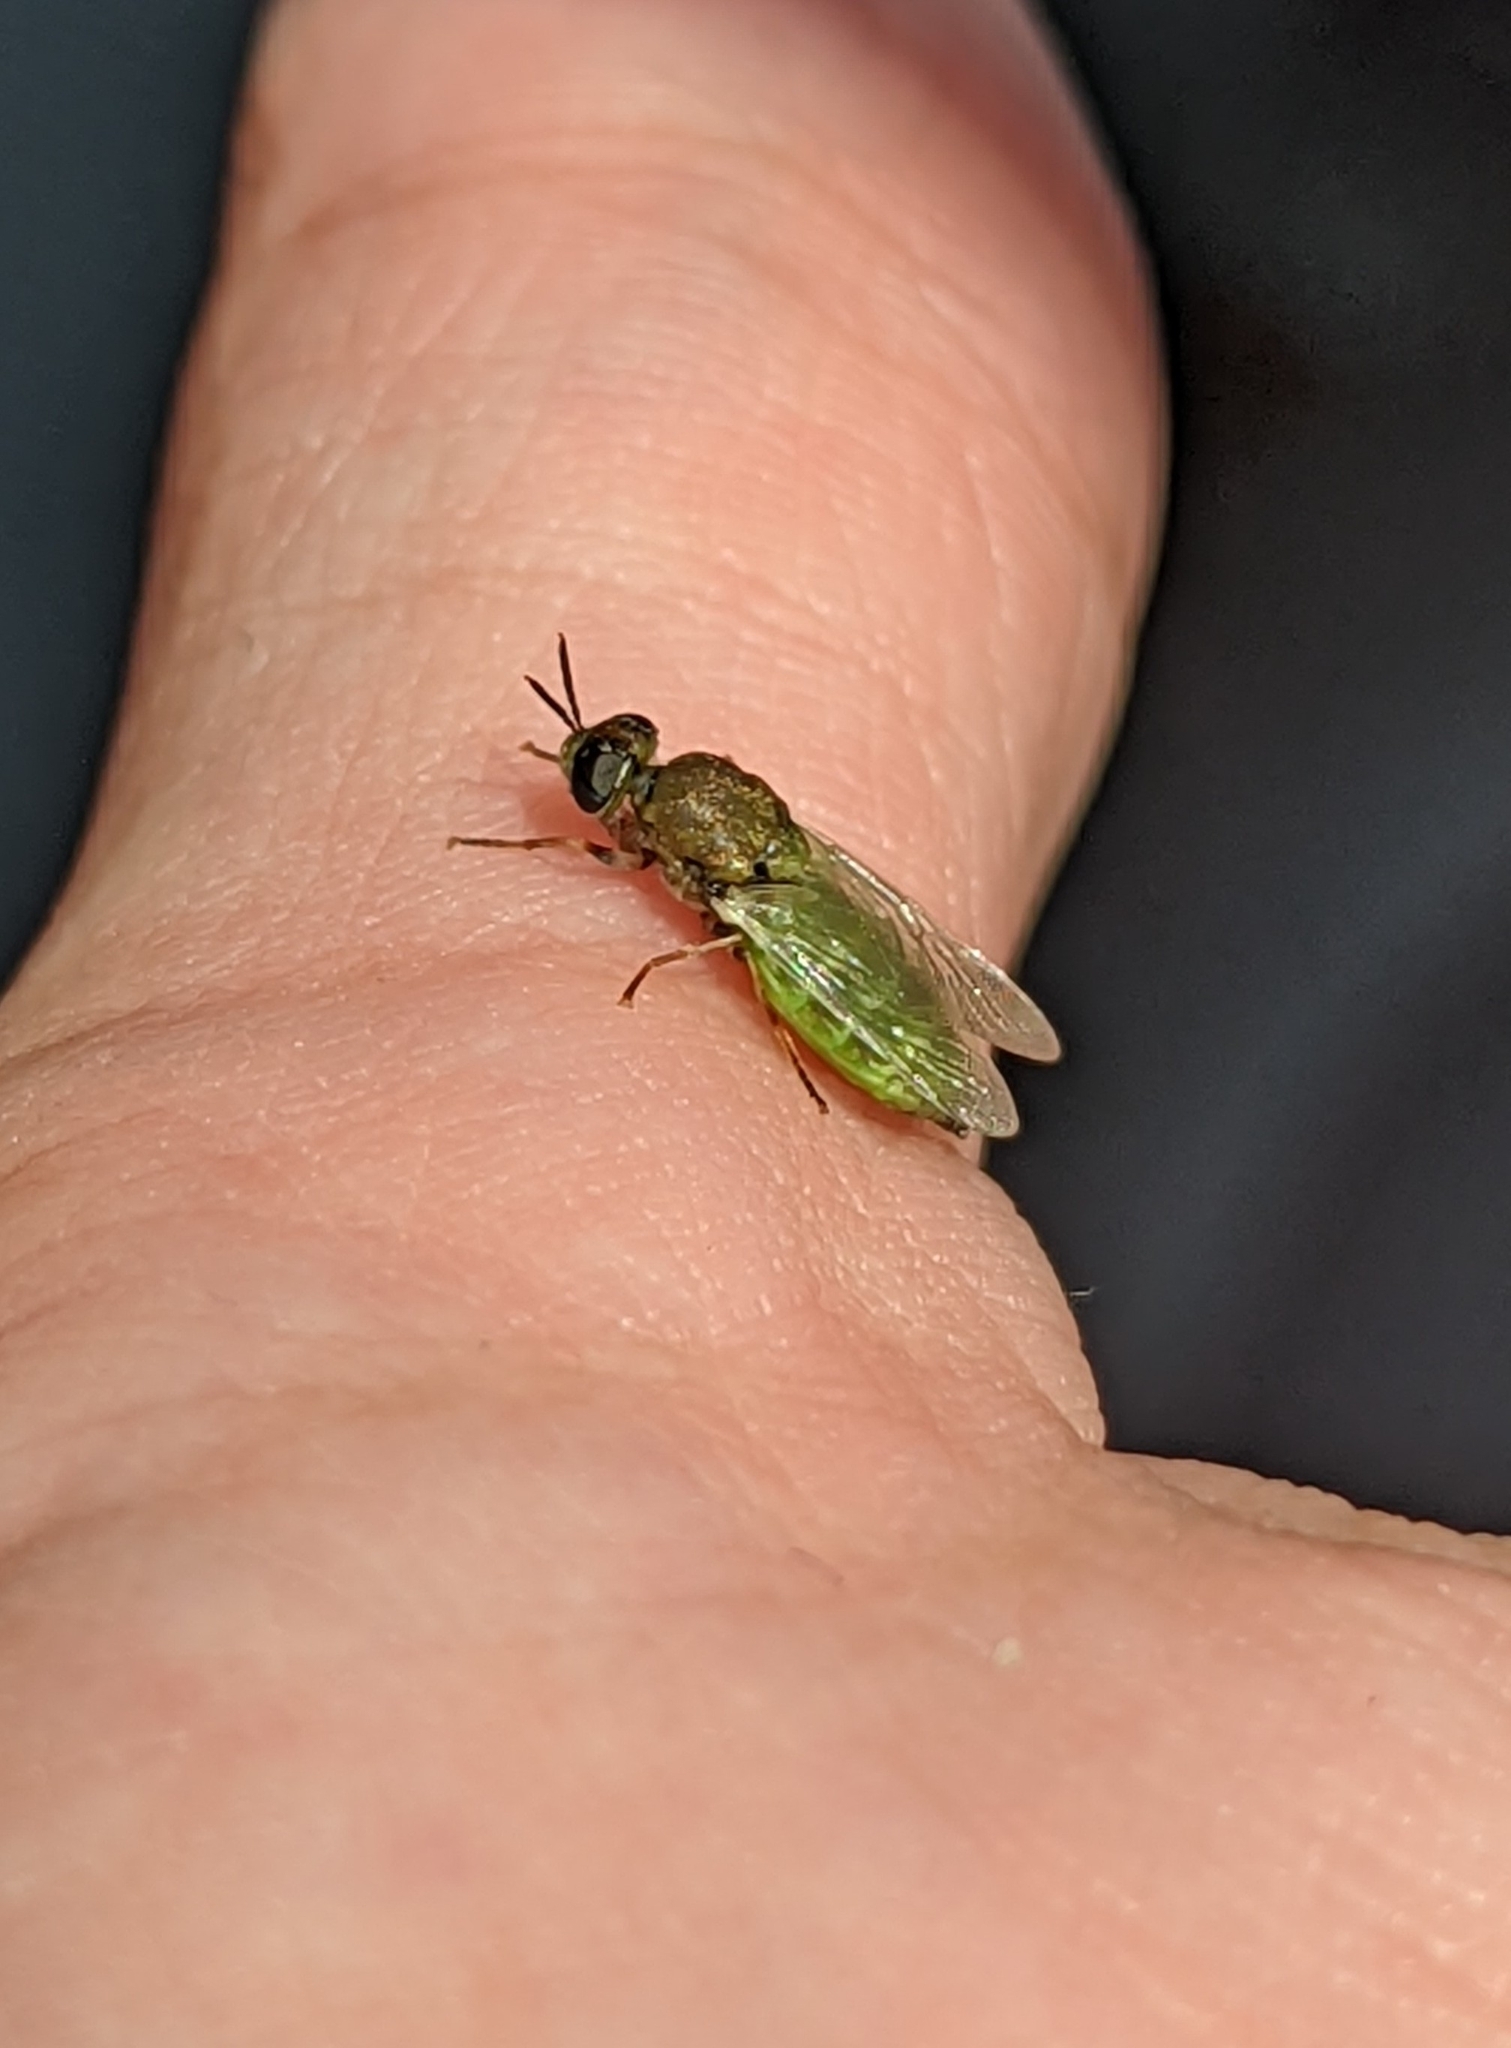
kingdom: Animalia
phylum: Arthropoda
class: Insecta
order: Diptera
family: Stratiomyidae
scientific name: Stratiomyidae
